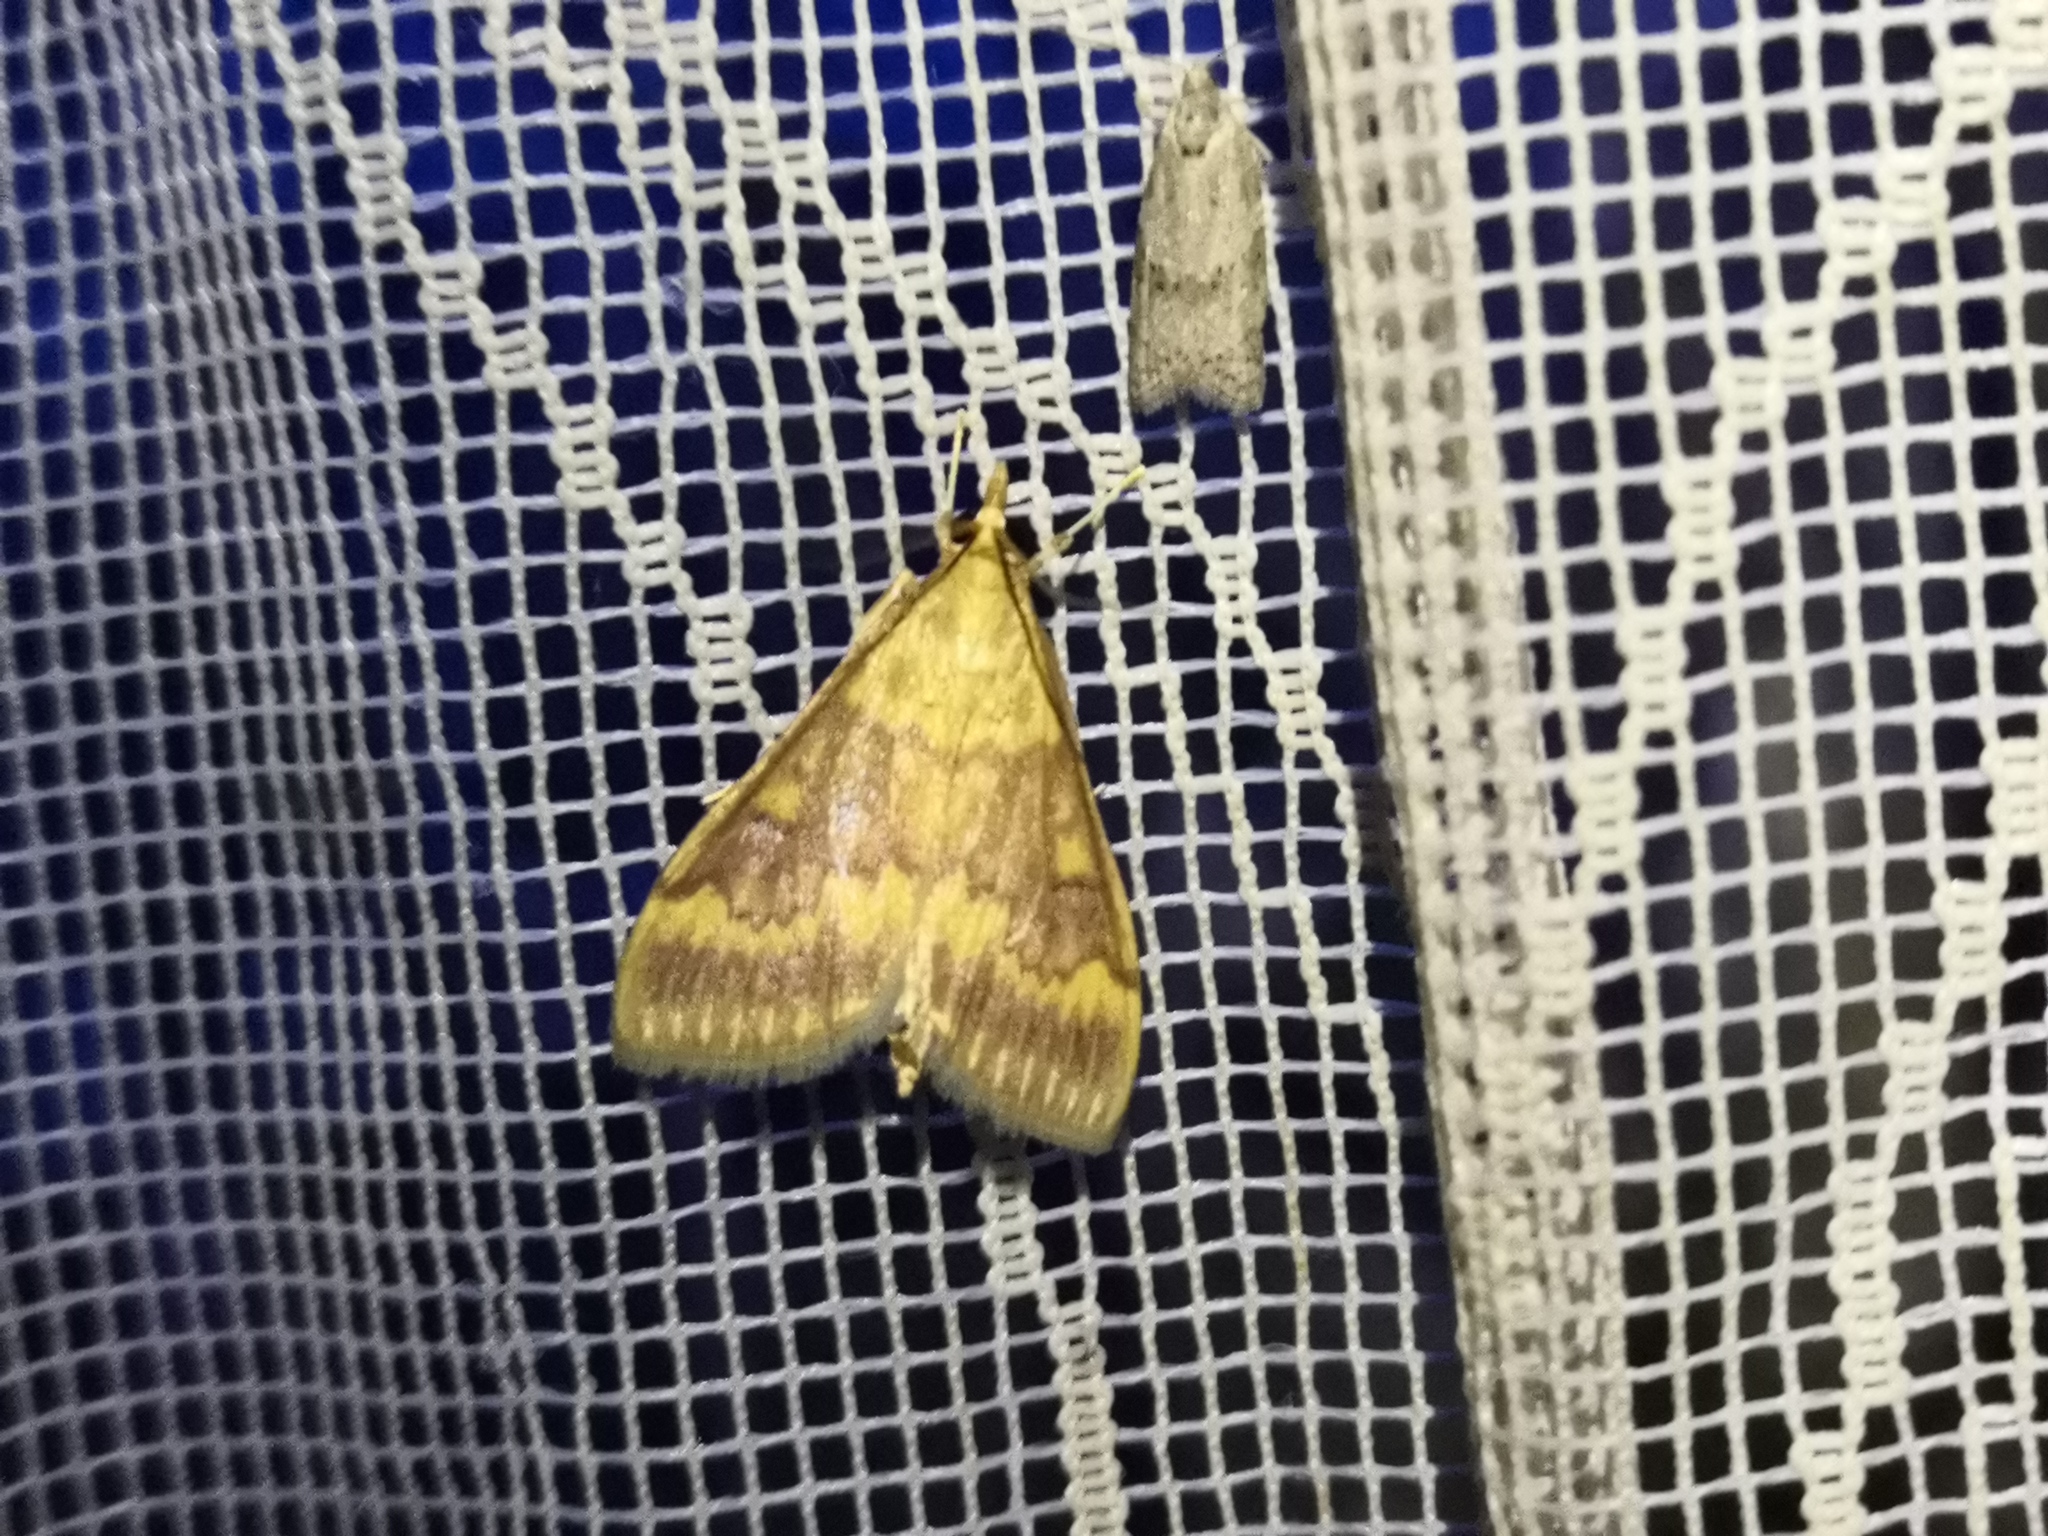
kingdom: Animalia
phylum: Arthropoda
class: Insecta
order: Lepidoptera
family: Crambidae
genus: Ostrinia
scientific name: Ostrinia nubilalis
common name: European corn borer
